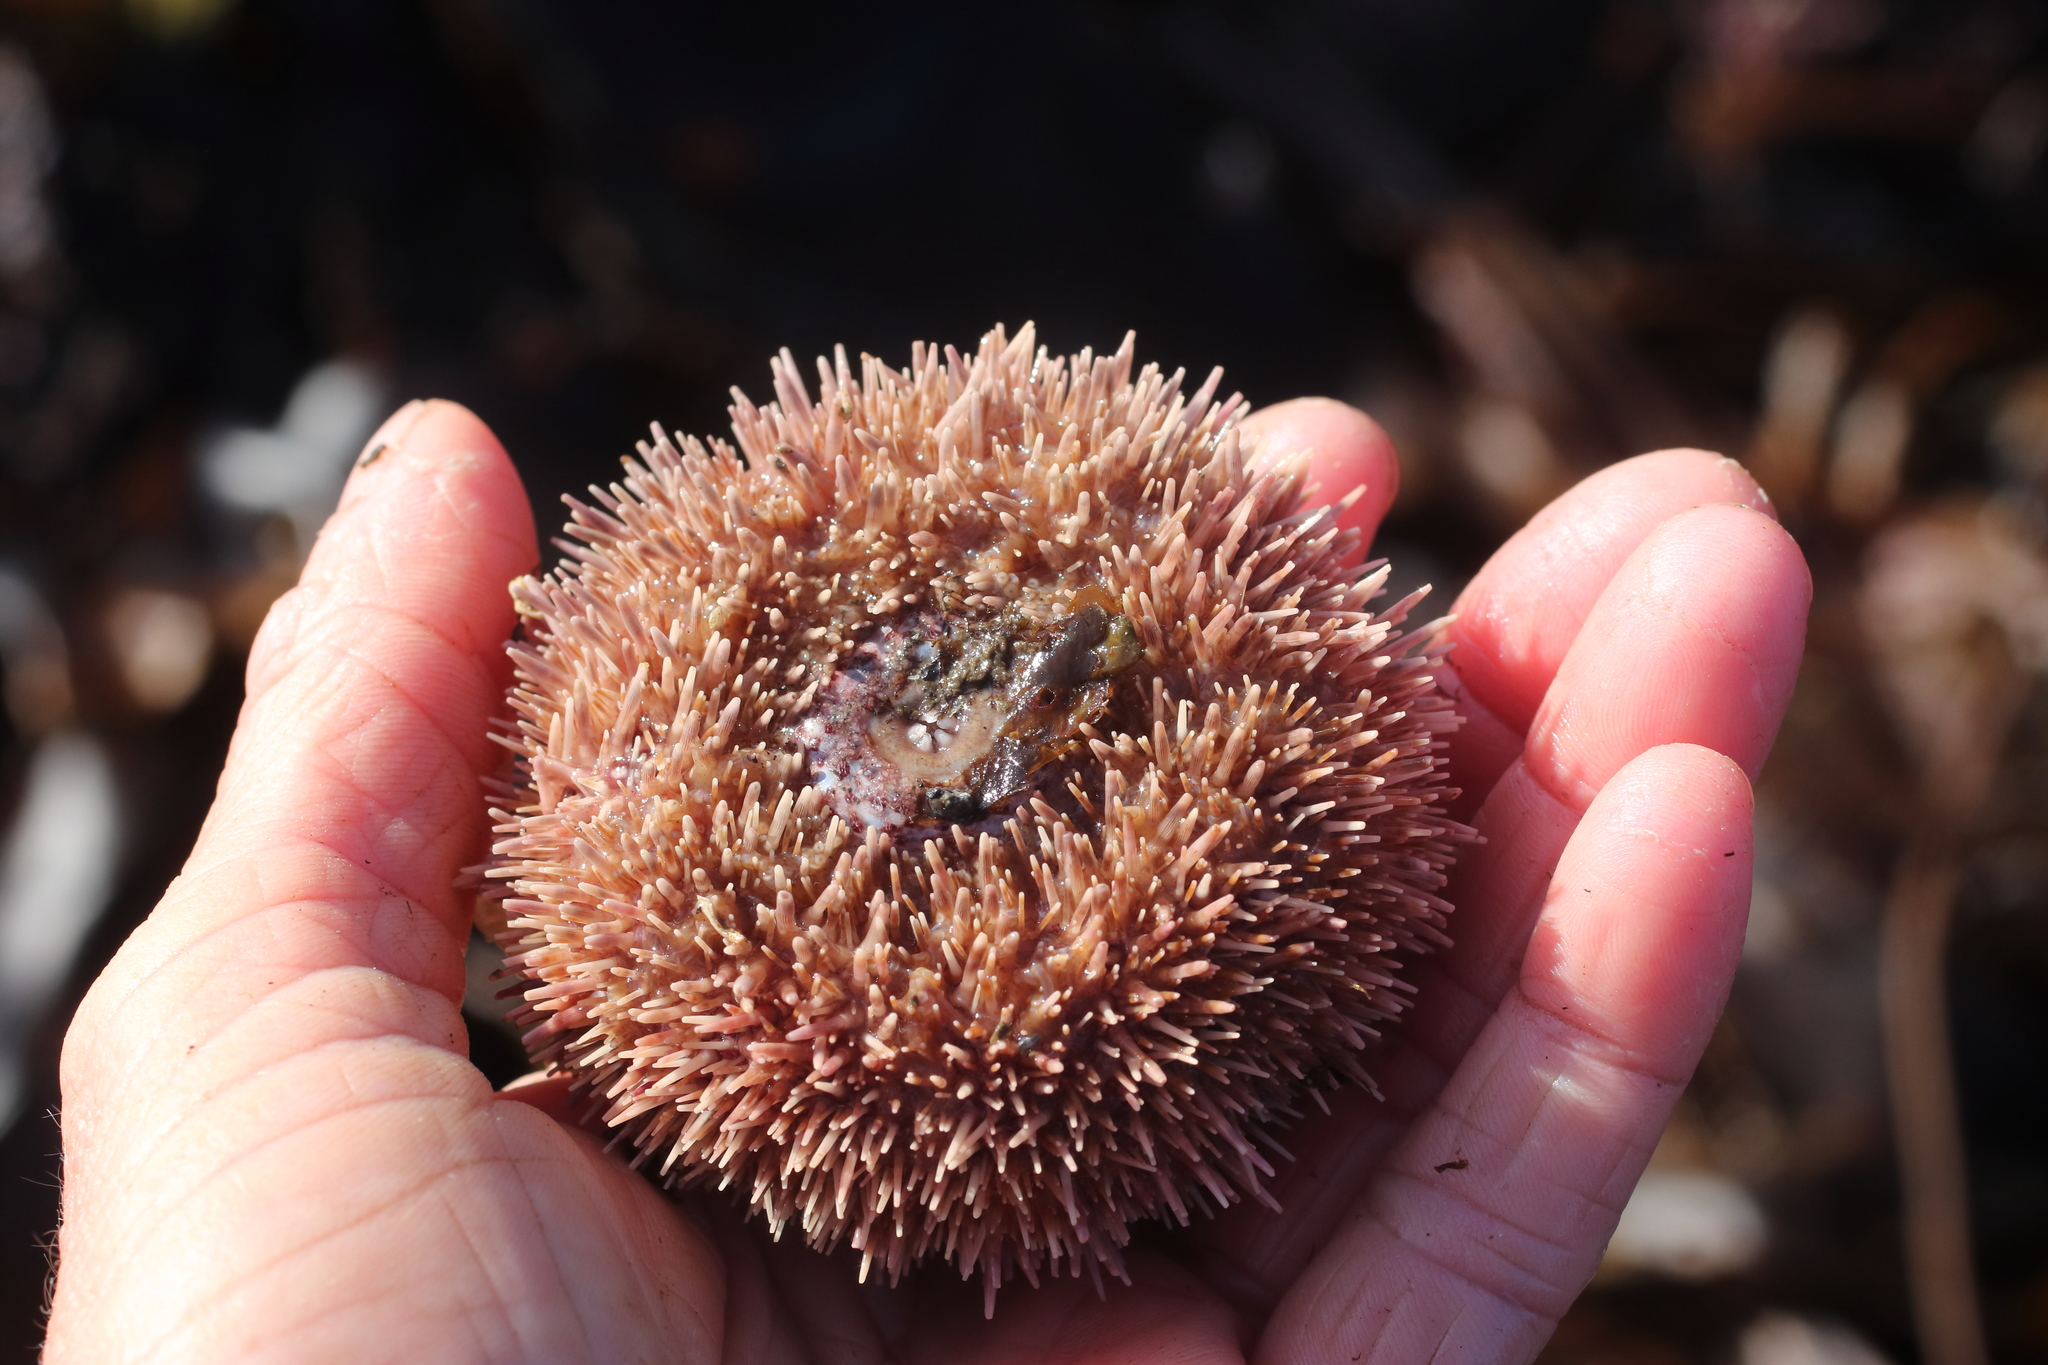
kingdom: Animalia
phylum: Echinodermata
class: Echinoidea
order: Camarodonta
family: Strongylocentrotidae
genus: Strongylocentrotus
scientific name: Strongylocentrotus droebachiensis
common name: Northern sea urchin
